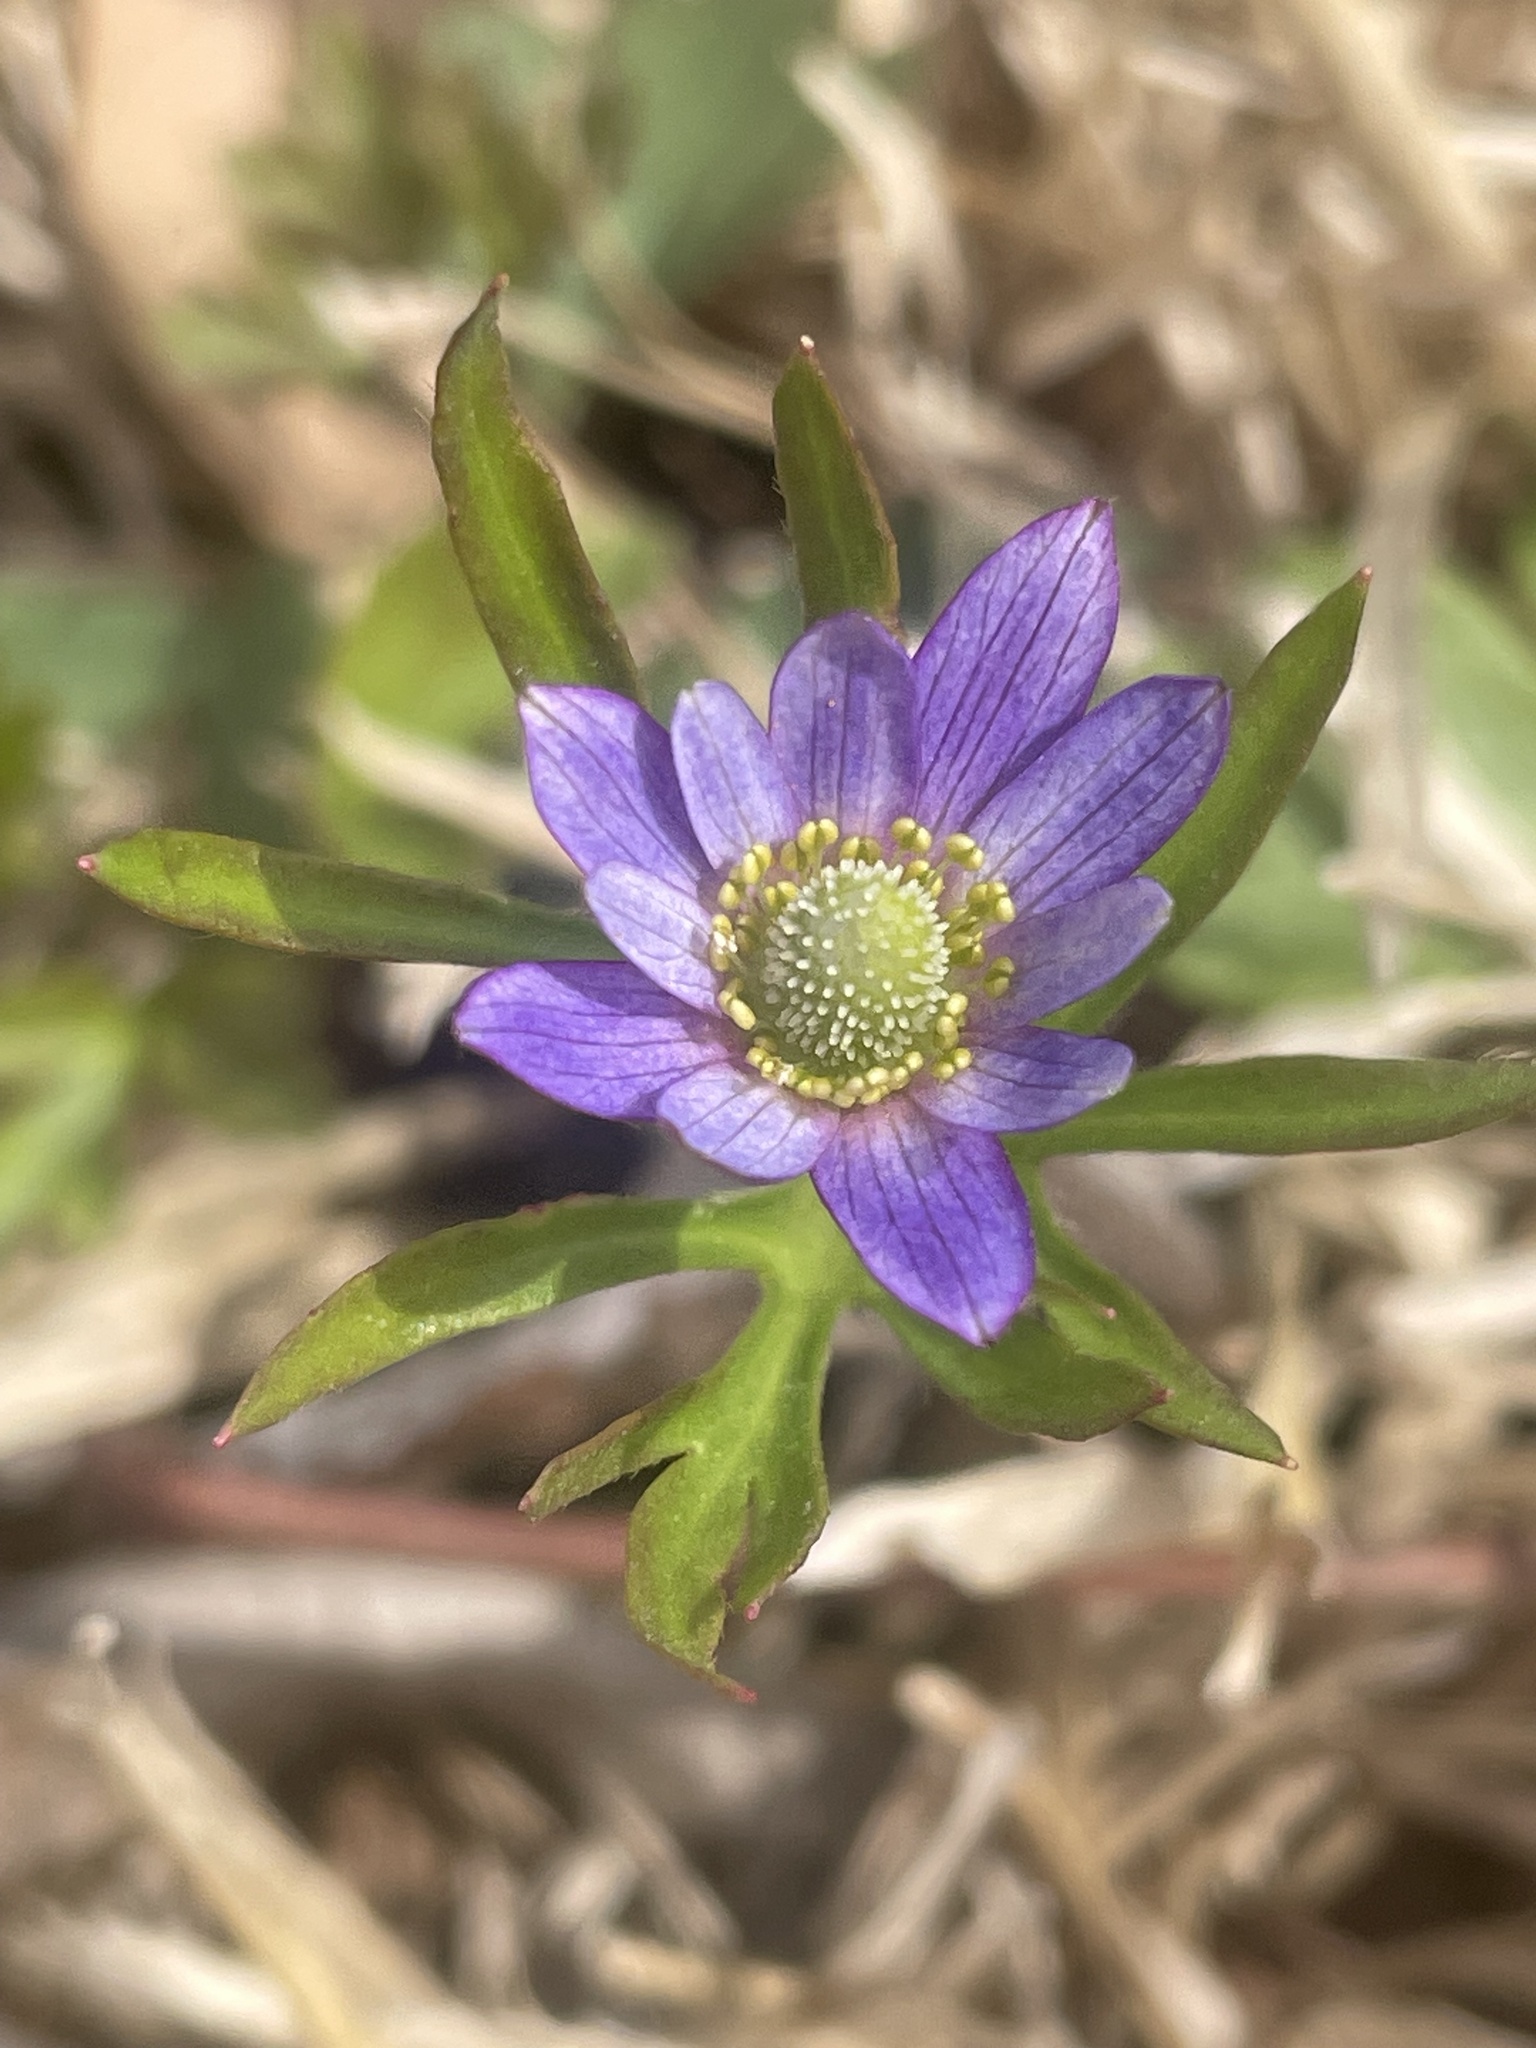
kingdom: Plantae
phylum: Tracheophyta
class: Magnoliopsida
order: Ranunculales
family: Ranunculaceae
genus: Anemone
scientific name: Anemone berlandieri
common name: Ten-petal anemone
